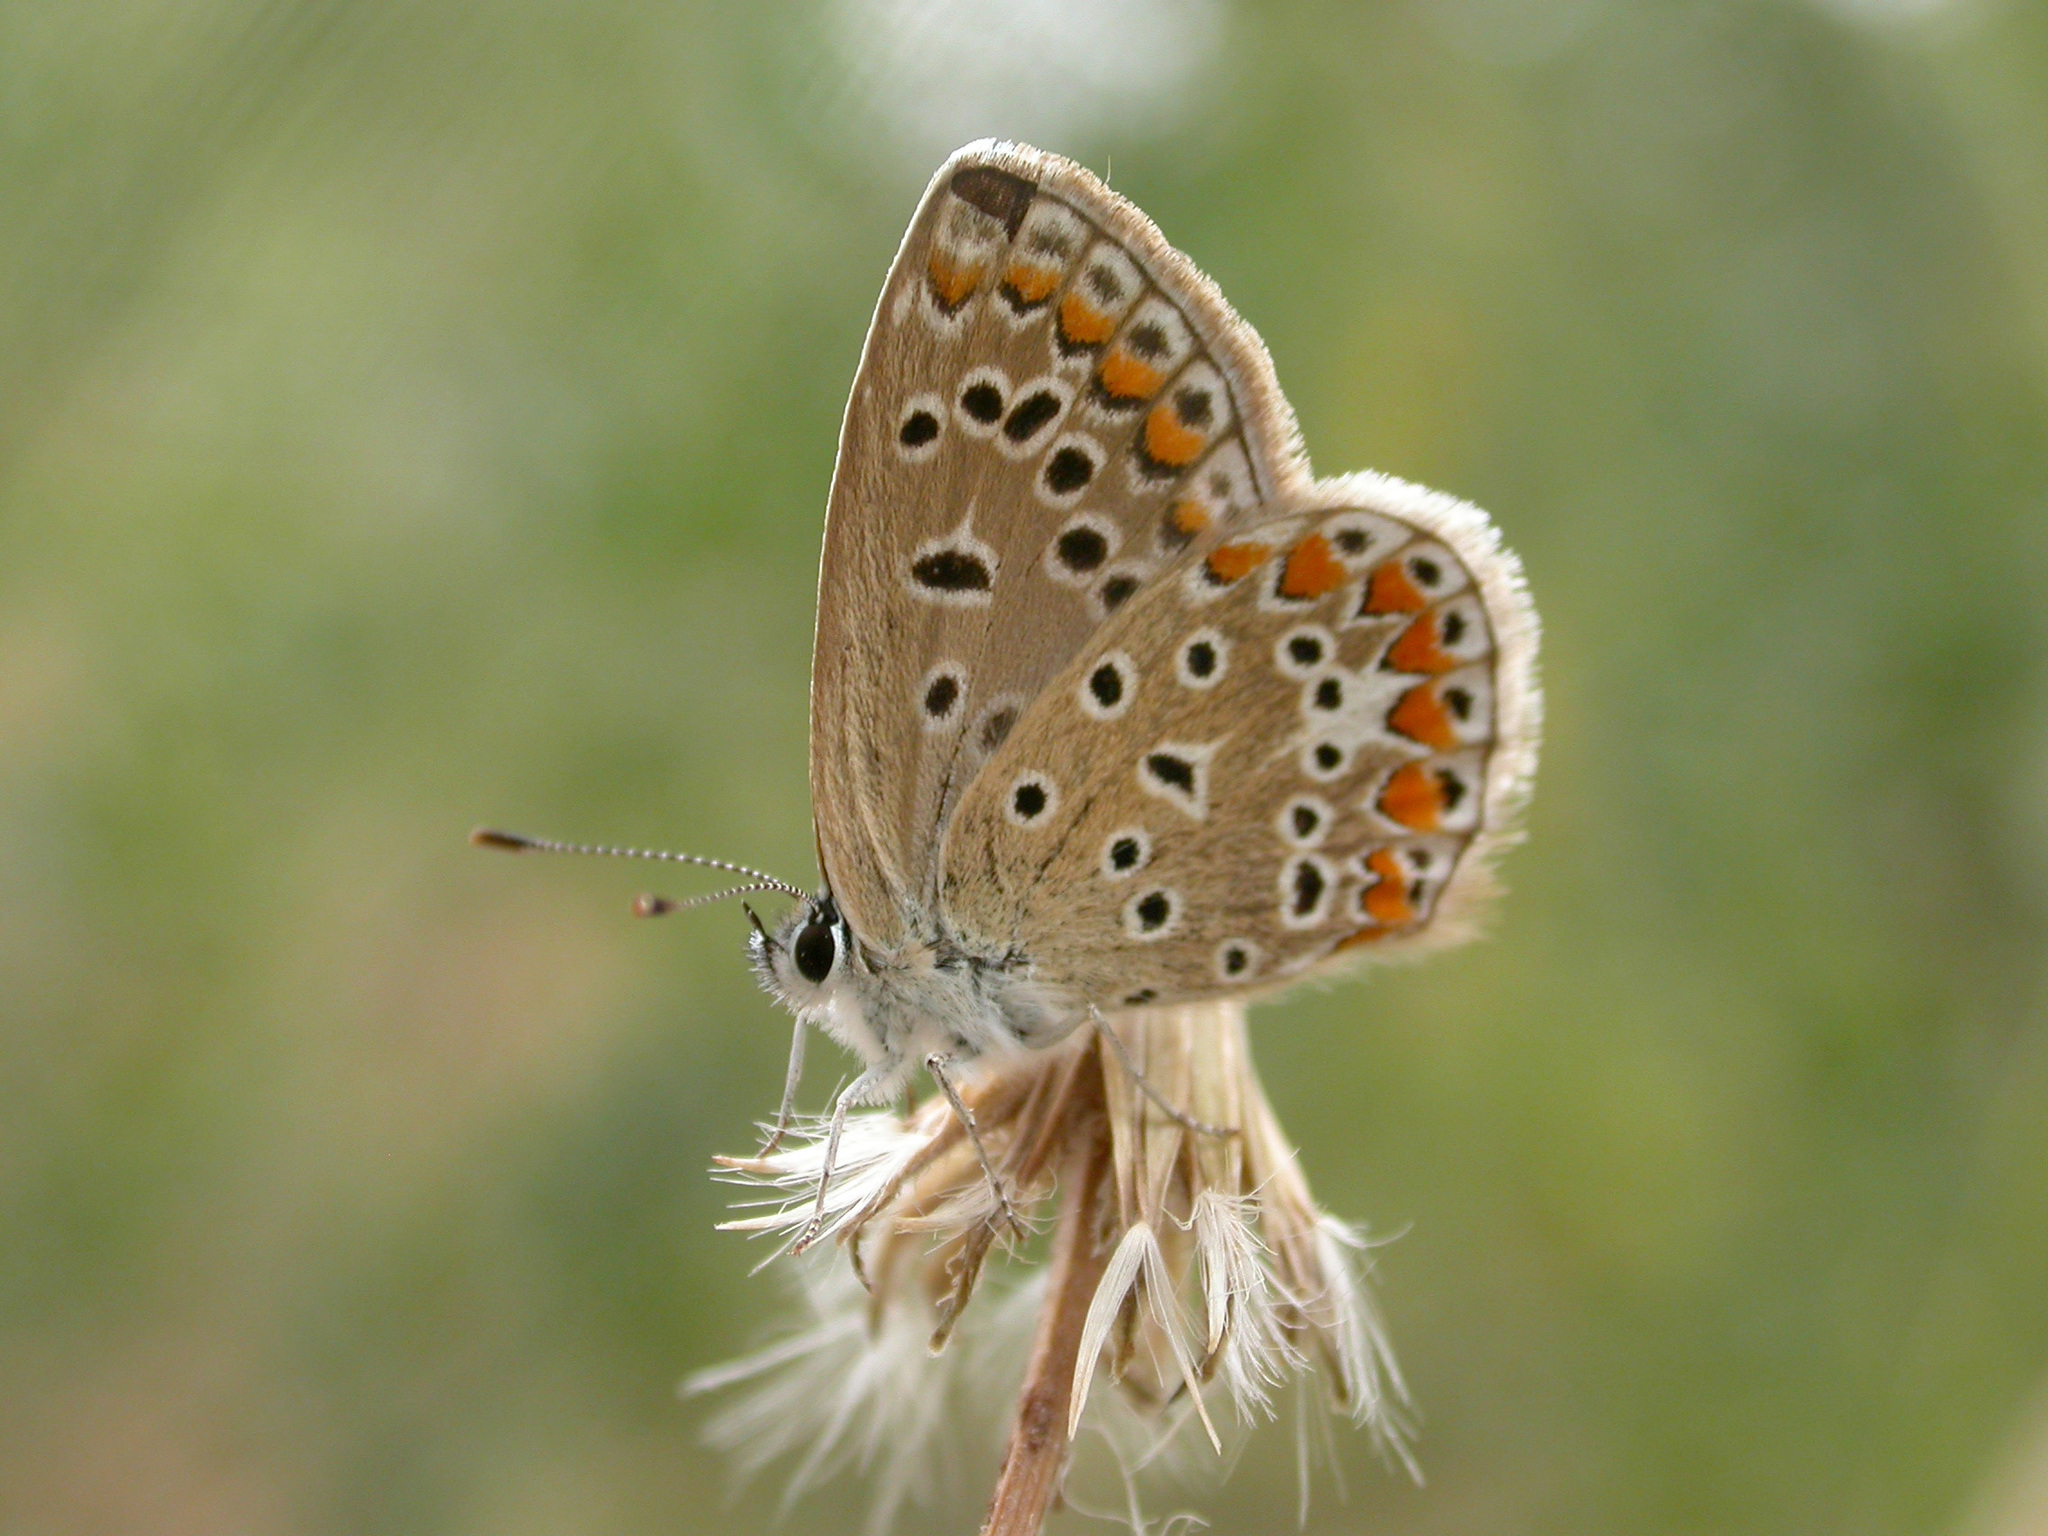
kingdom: Animalia
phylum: Arthropoda
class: Insecta
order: Lepidoptera
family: Lycaenidae
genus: Polyommatus
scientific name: Polyommatus icarus
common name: Common blue
